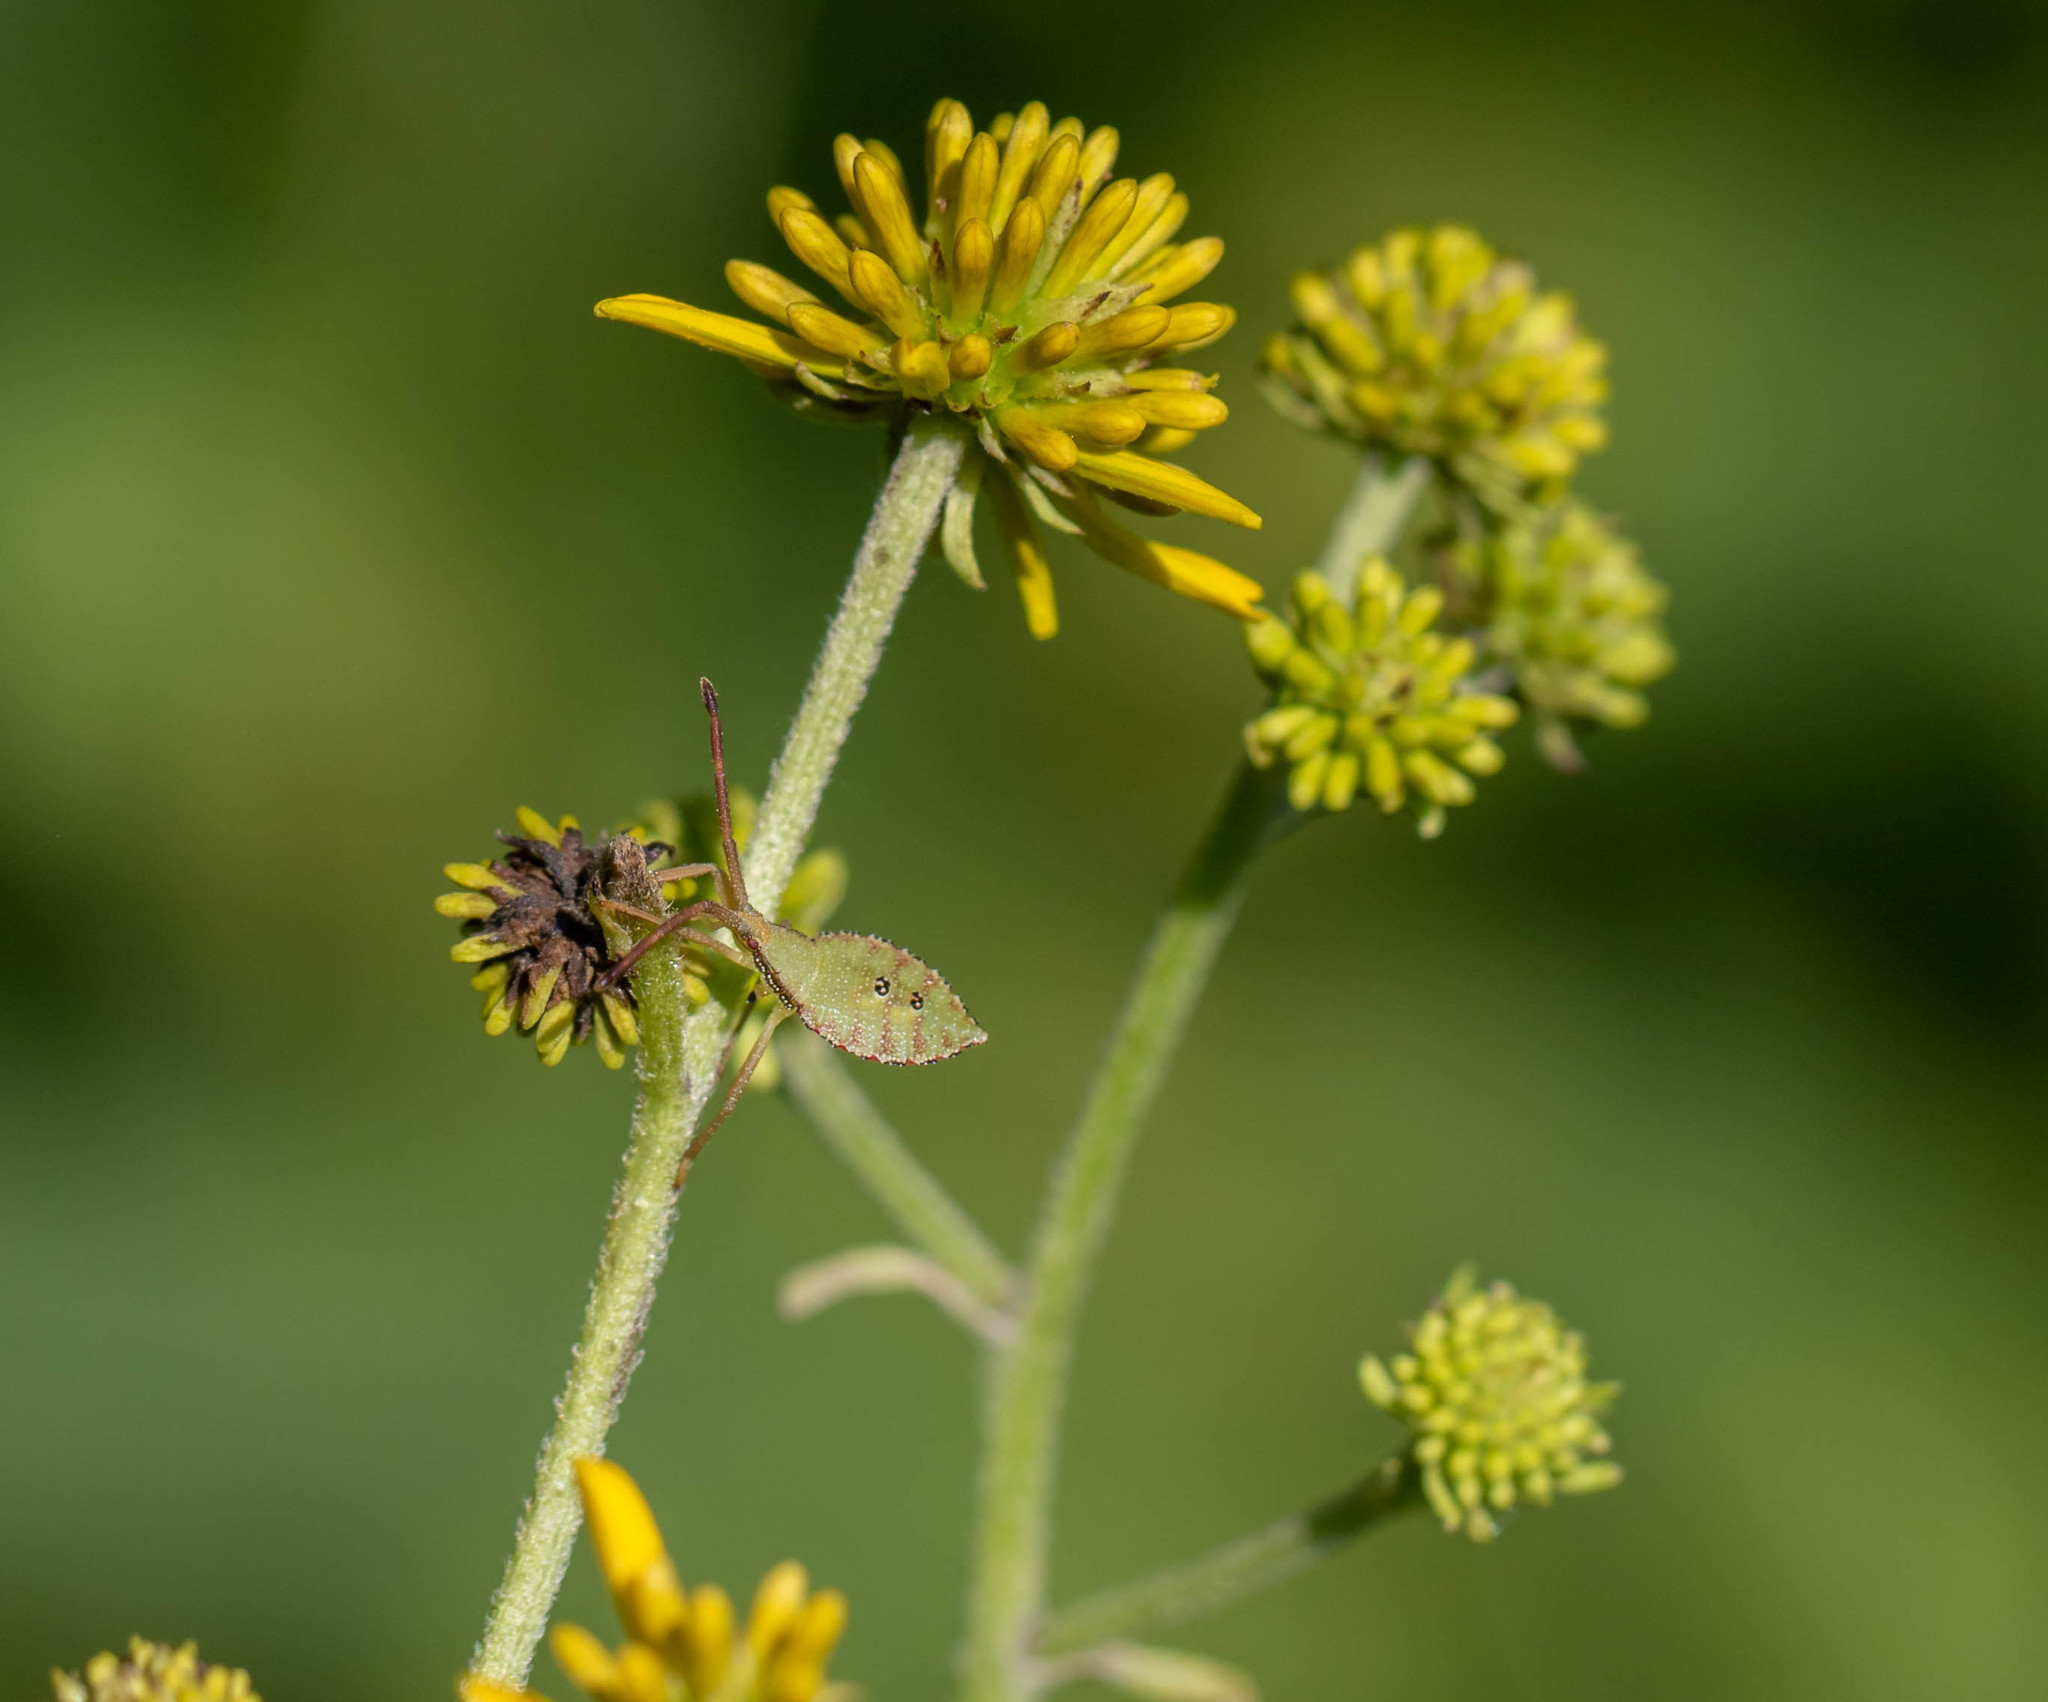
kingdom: Plantae
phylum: Tracheophyta
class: Magnoliopsida
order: Asterales
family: Asteraceae
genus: Verbesina
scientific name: Verbesina alternifolia
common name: Wingstem
